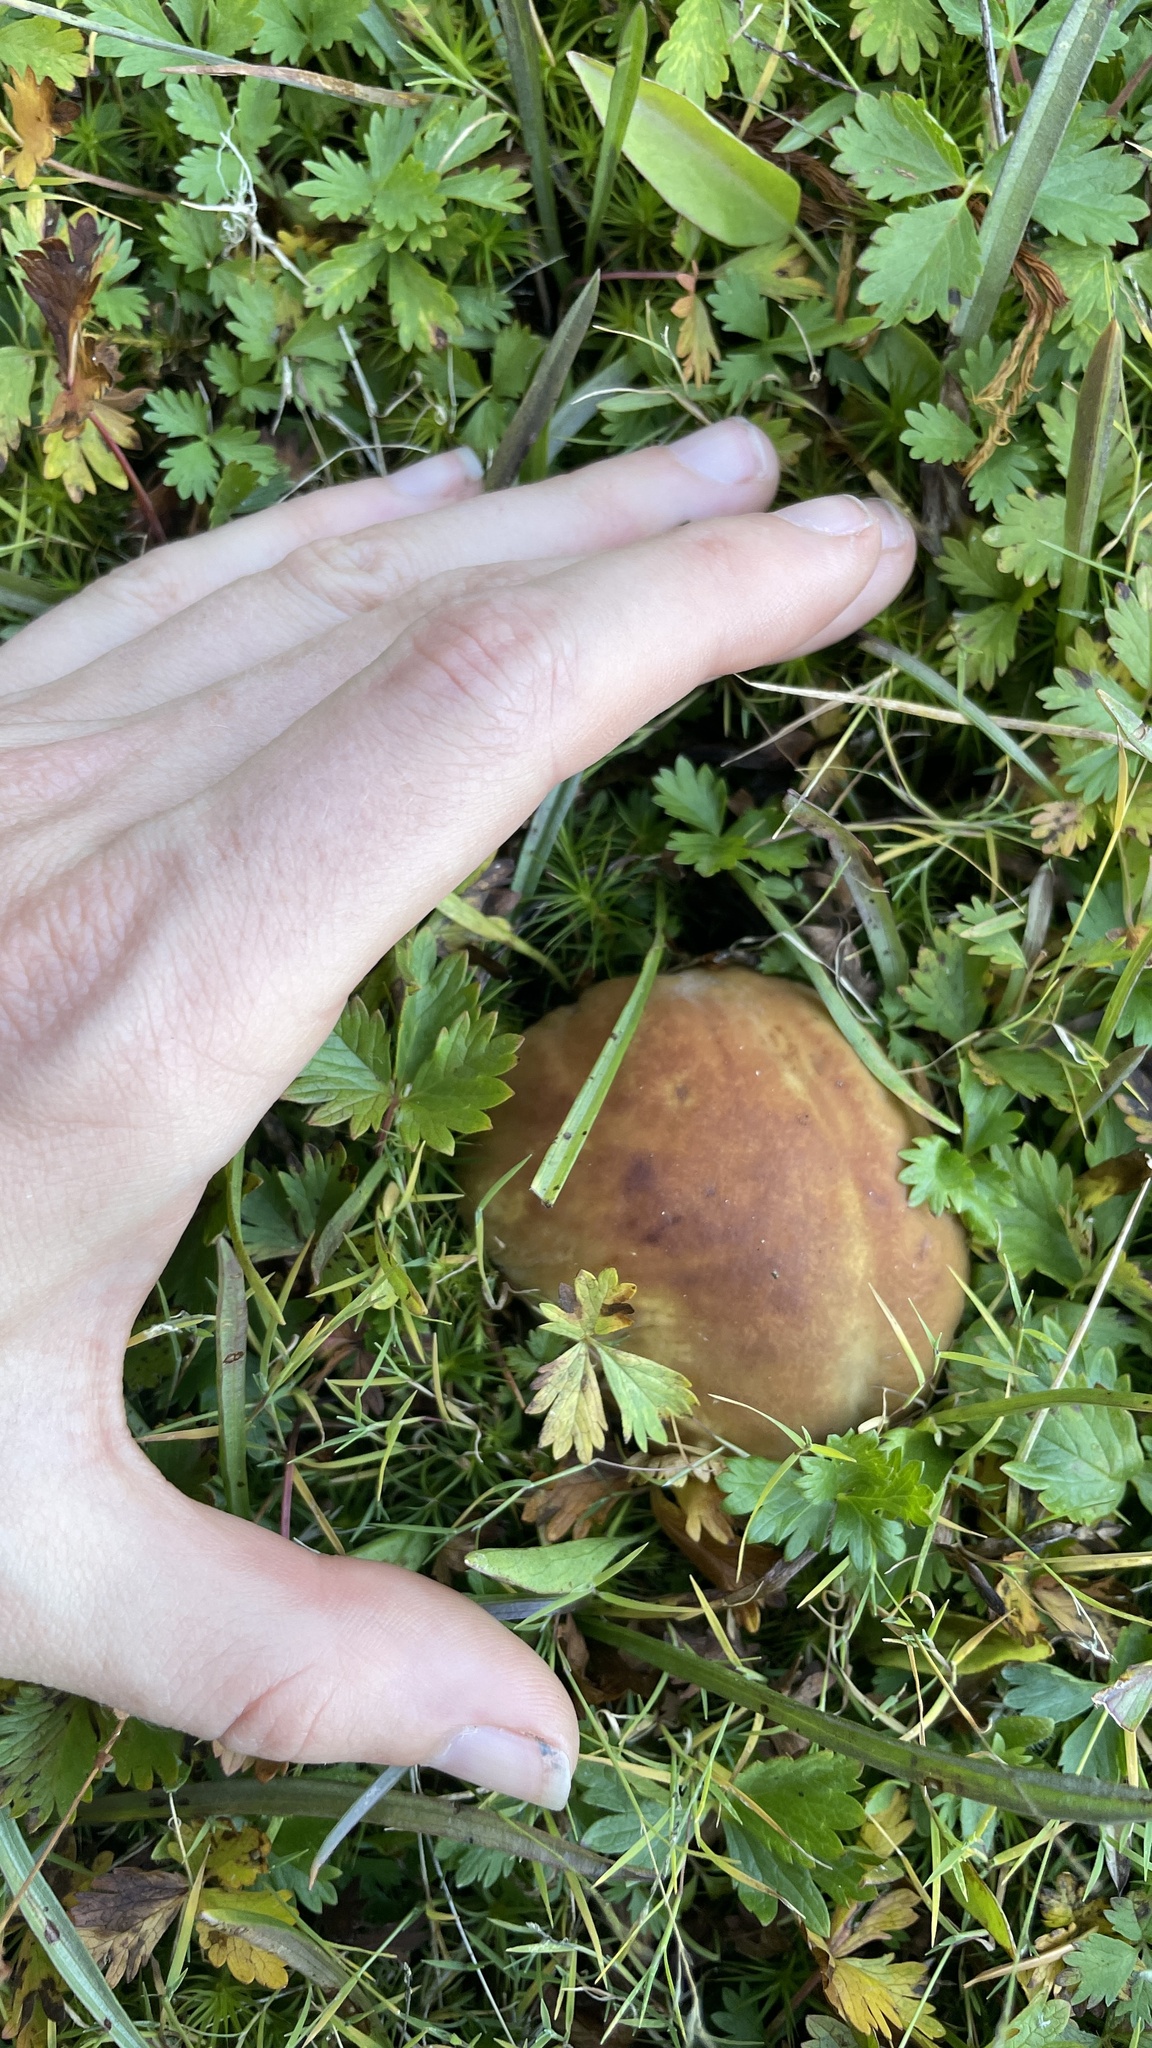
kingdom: Fungi
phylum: Basidiomycota
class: Agaricomycetes
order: Boletales
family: Boletaceae
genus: Boletus
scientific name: Boletus edulis
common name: Cep
